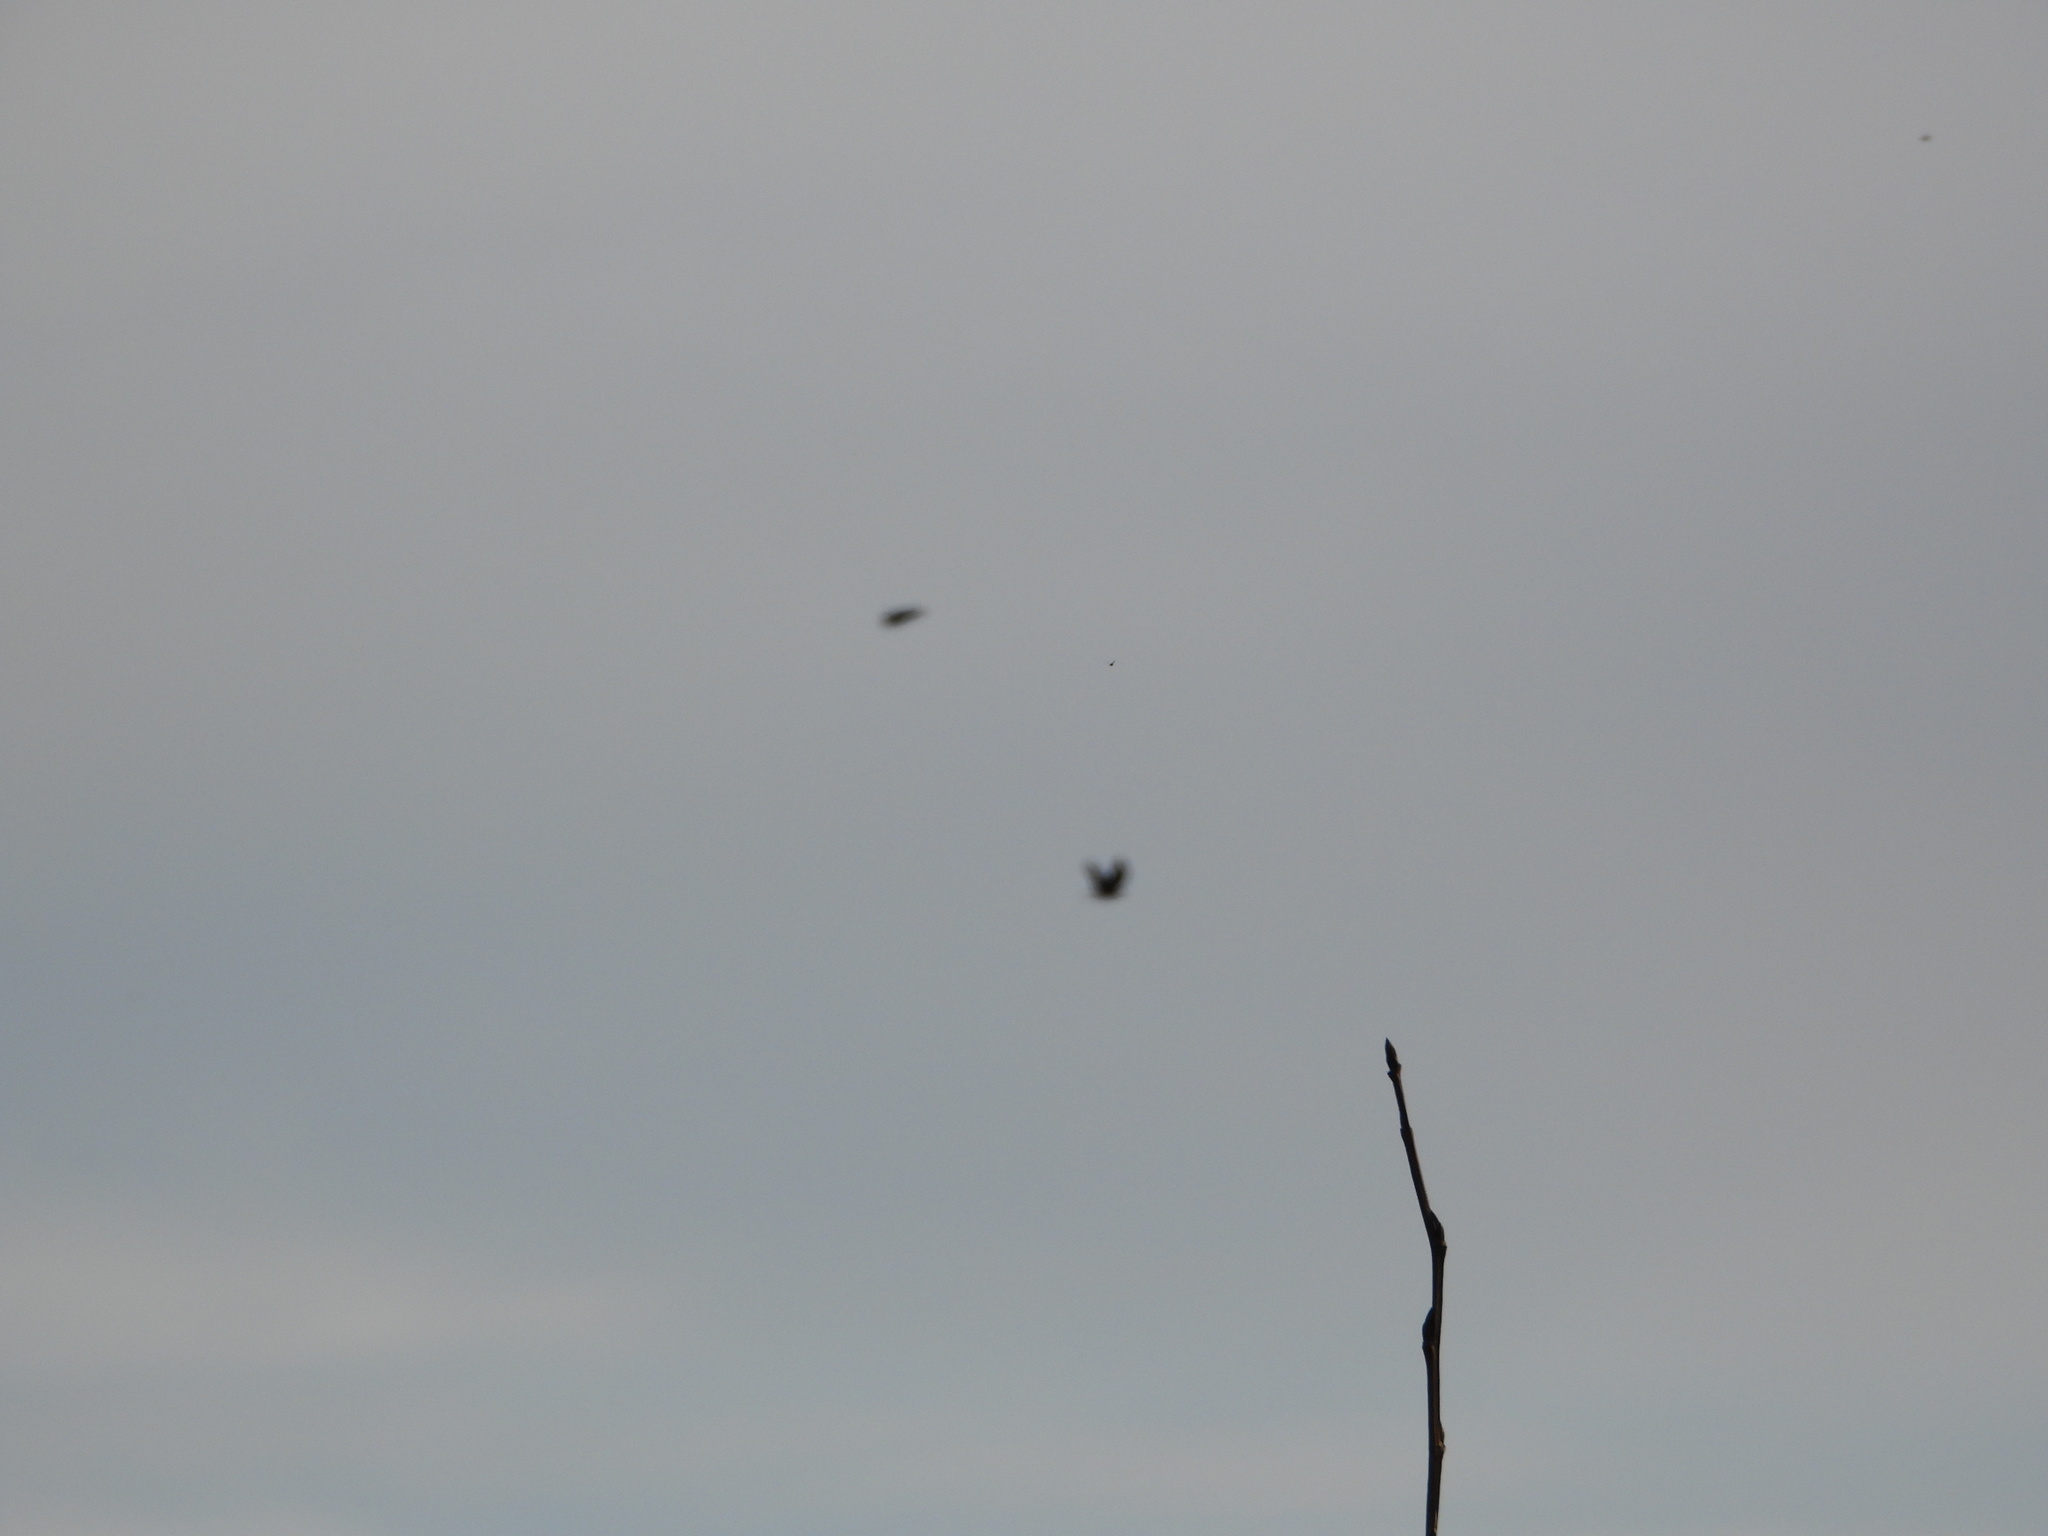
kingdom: Animalia
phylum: Chordata
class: Aves
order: Passeriformes
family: Corvidae
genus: Corvus
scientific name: Corvus brachyrhynchos
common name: American crow
